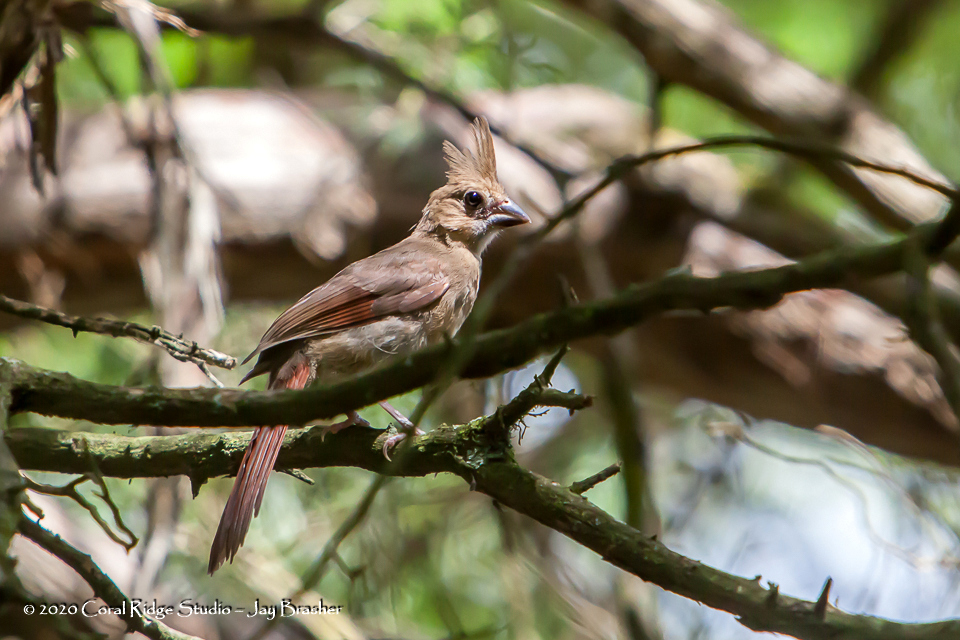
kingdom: Animalia
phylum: Chordata
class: Aves
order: Passeriformes
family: Cardinalidae
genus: Cardinalis
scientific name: Cardinalis cardinalis
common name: Northern cardinal
